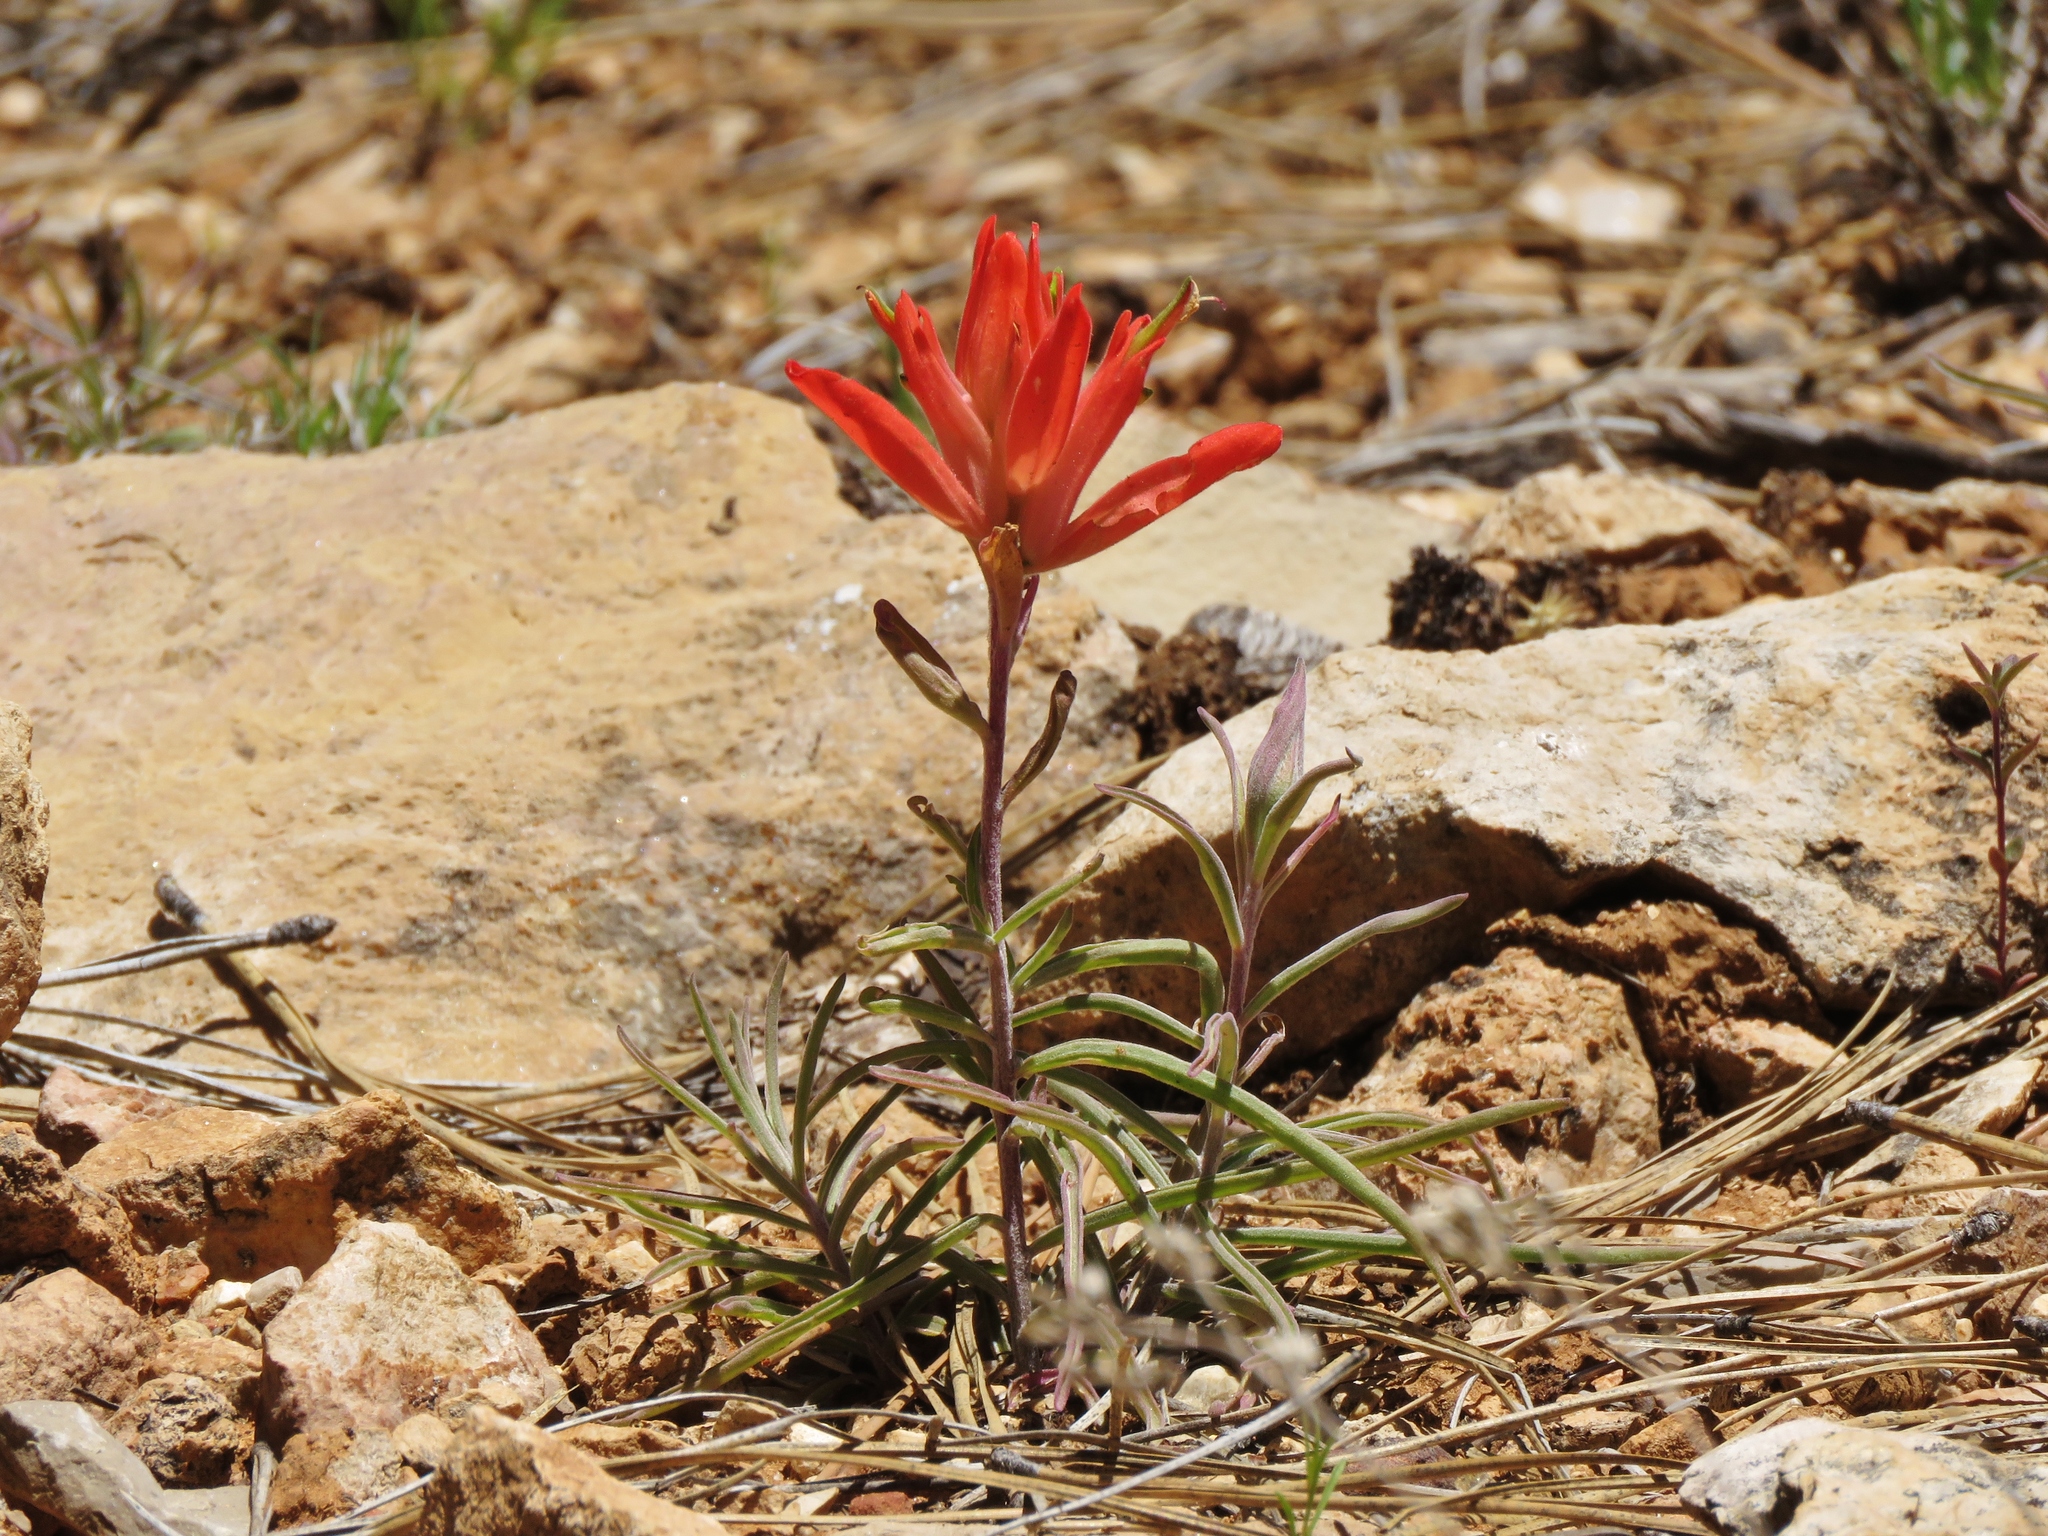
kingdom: Plantae
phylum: Tracheophyta
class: Magnoliopsida
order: Lamiales
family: Orobanchaceae
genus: Castilleja
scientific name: Castilleja integra
